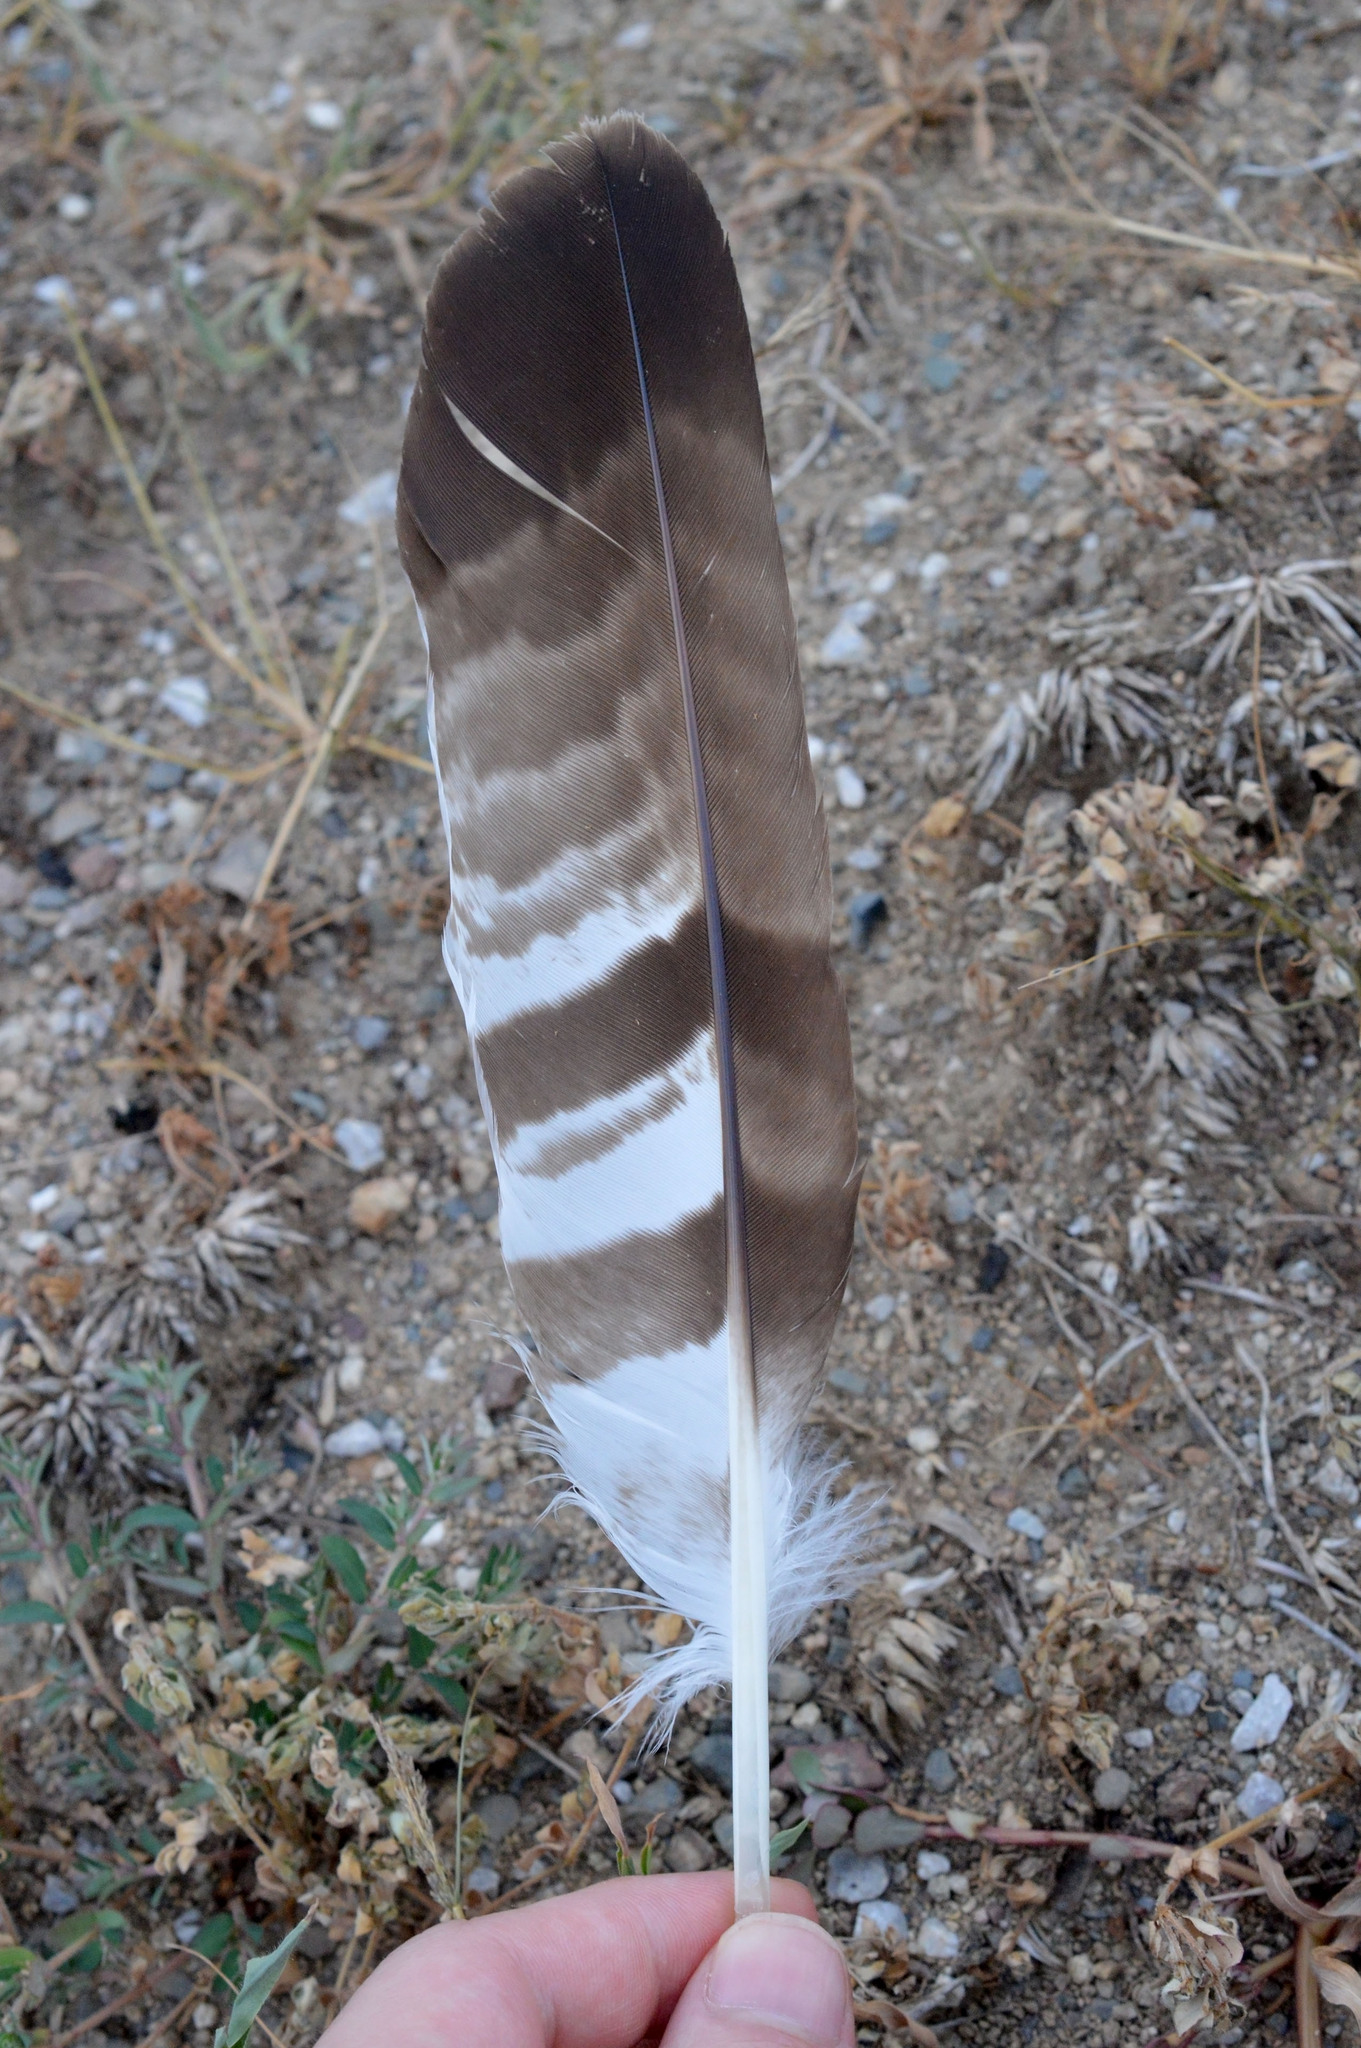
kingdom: Animalia
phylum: Chordata
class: Aves
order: Accipitriformes
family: Accipitridae
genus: Pernis
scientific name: Pernis apivorus
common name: European honey buzzard
